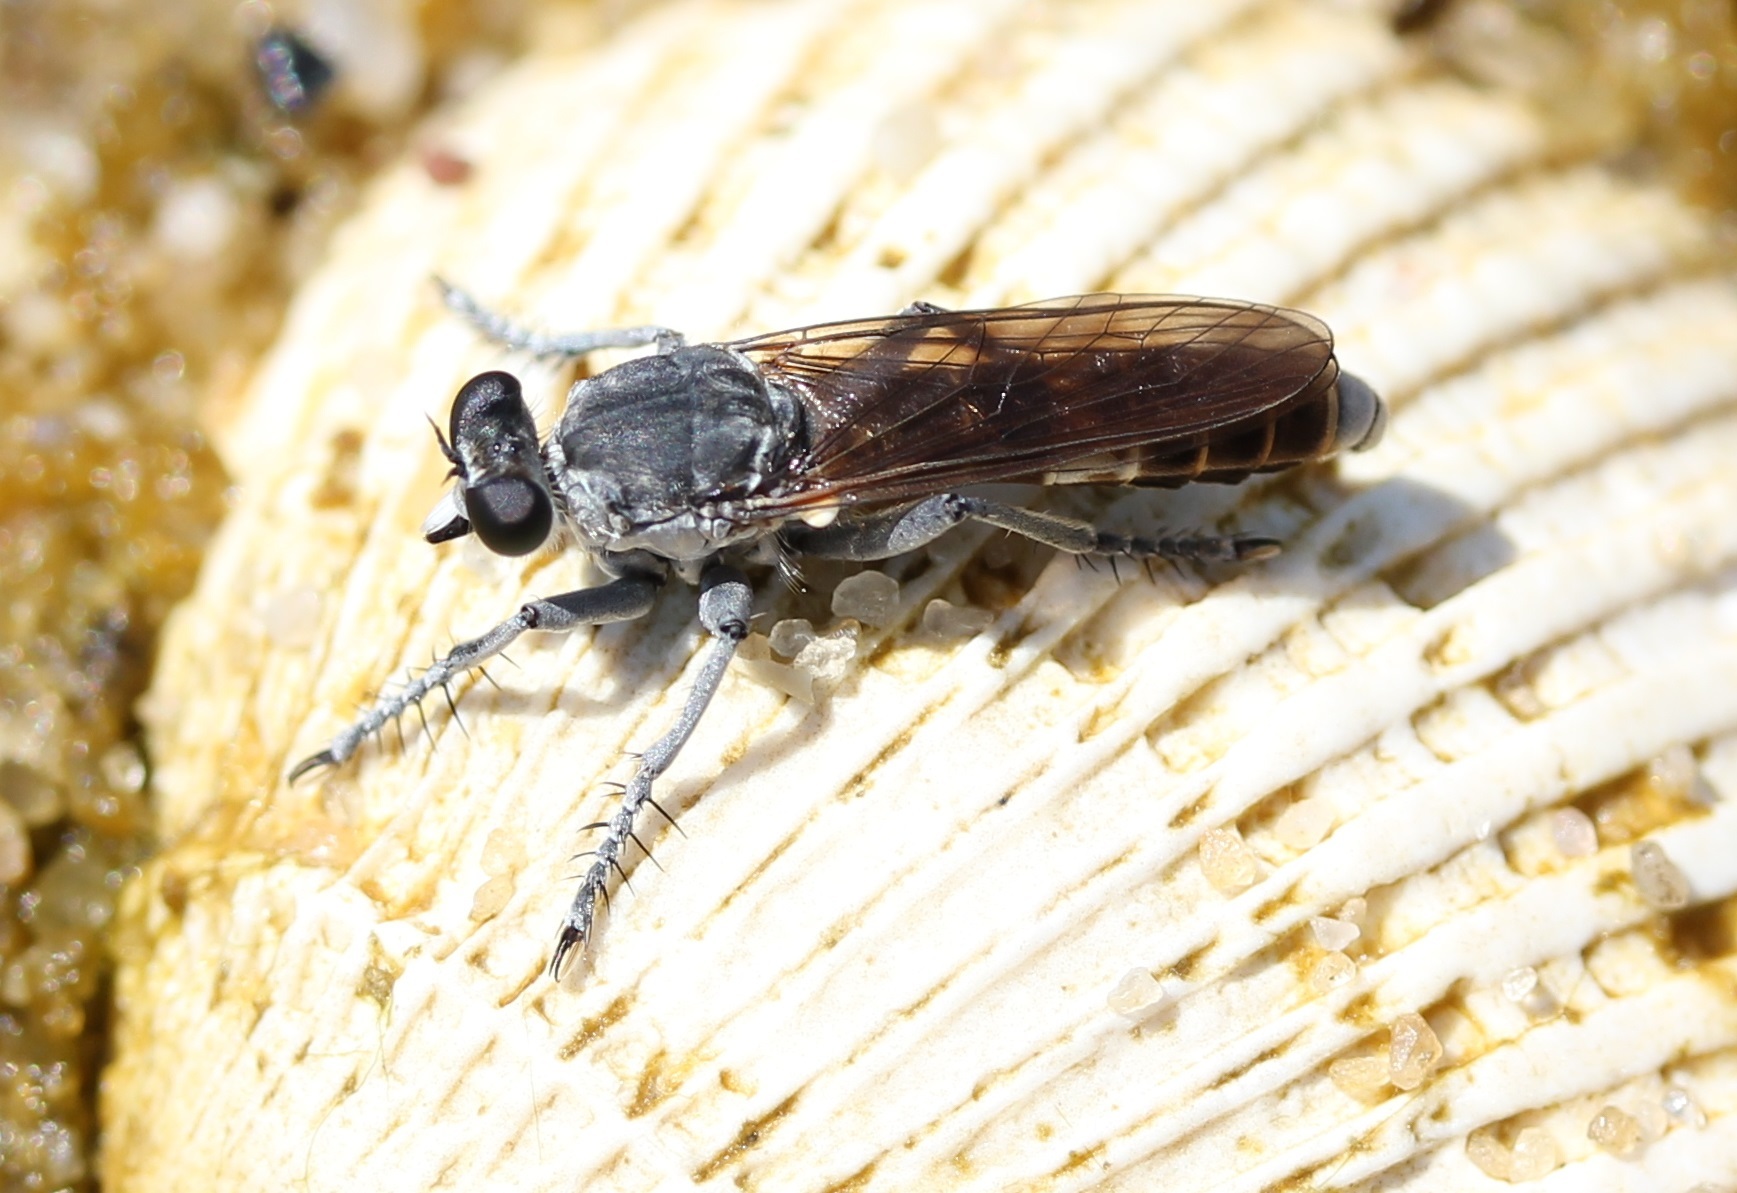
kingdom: Animalia
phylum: Arthropoda
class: Insecta
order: Diptera
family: Asilidae
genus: Stichopogon
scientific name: Stichopogon trifasciatus
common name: Three-banded robber fly
